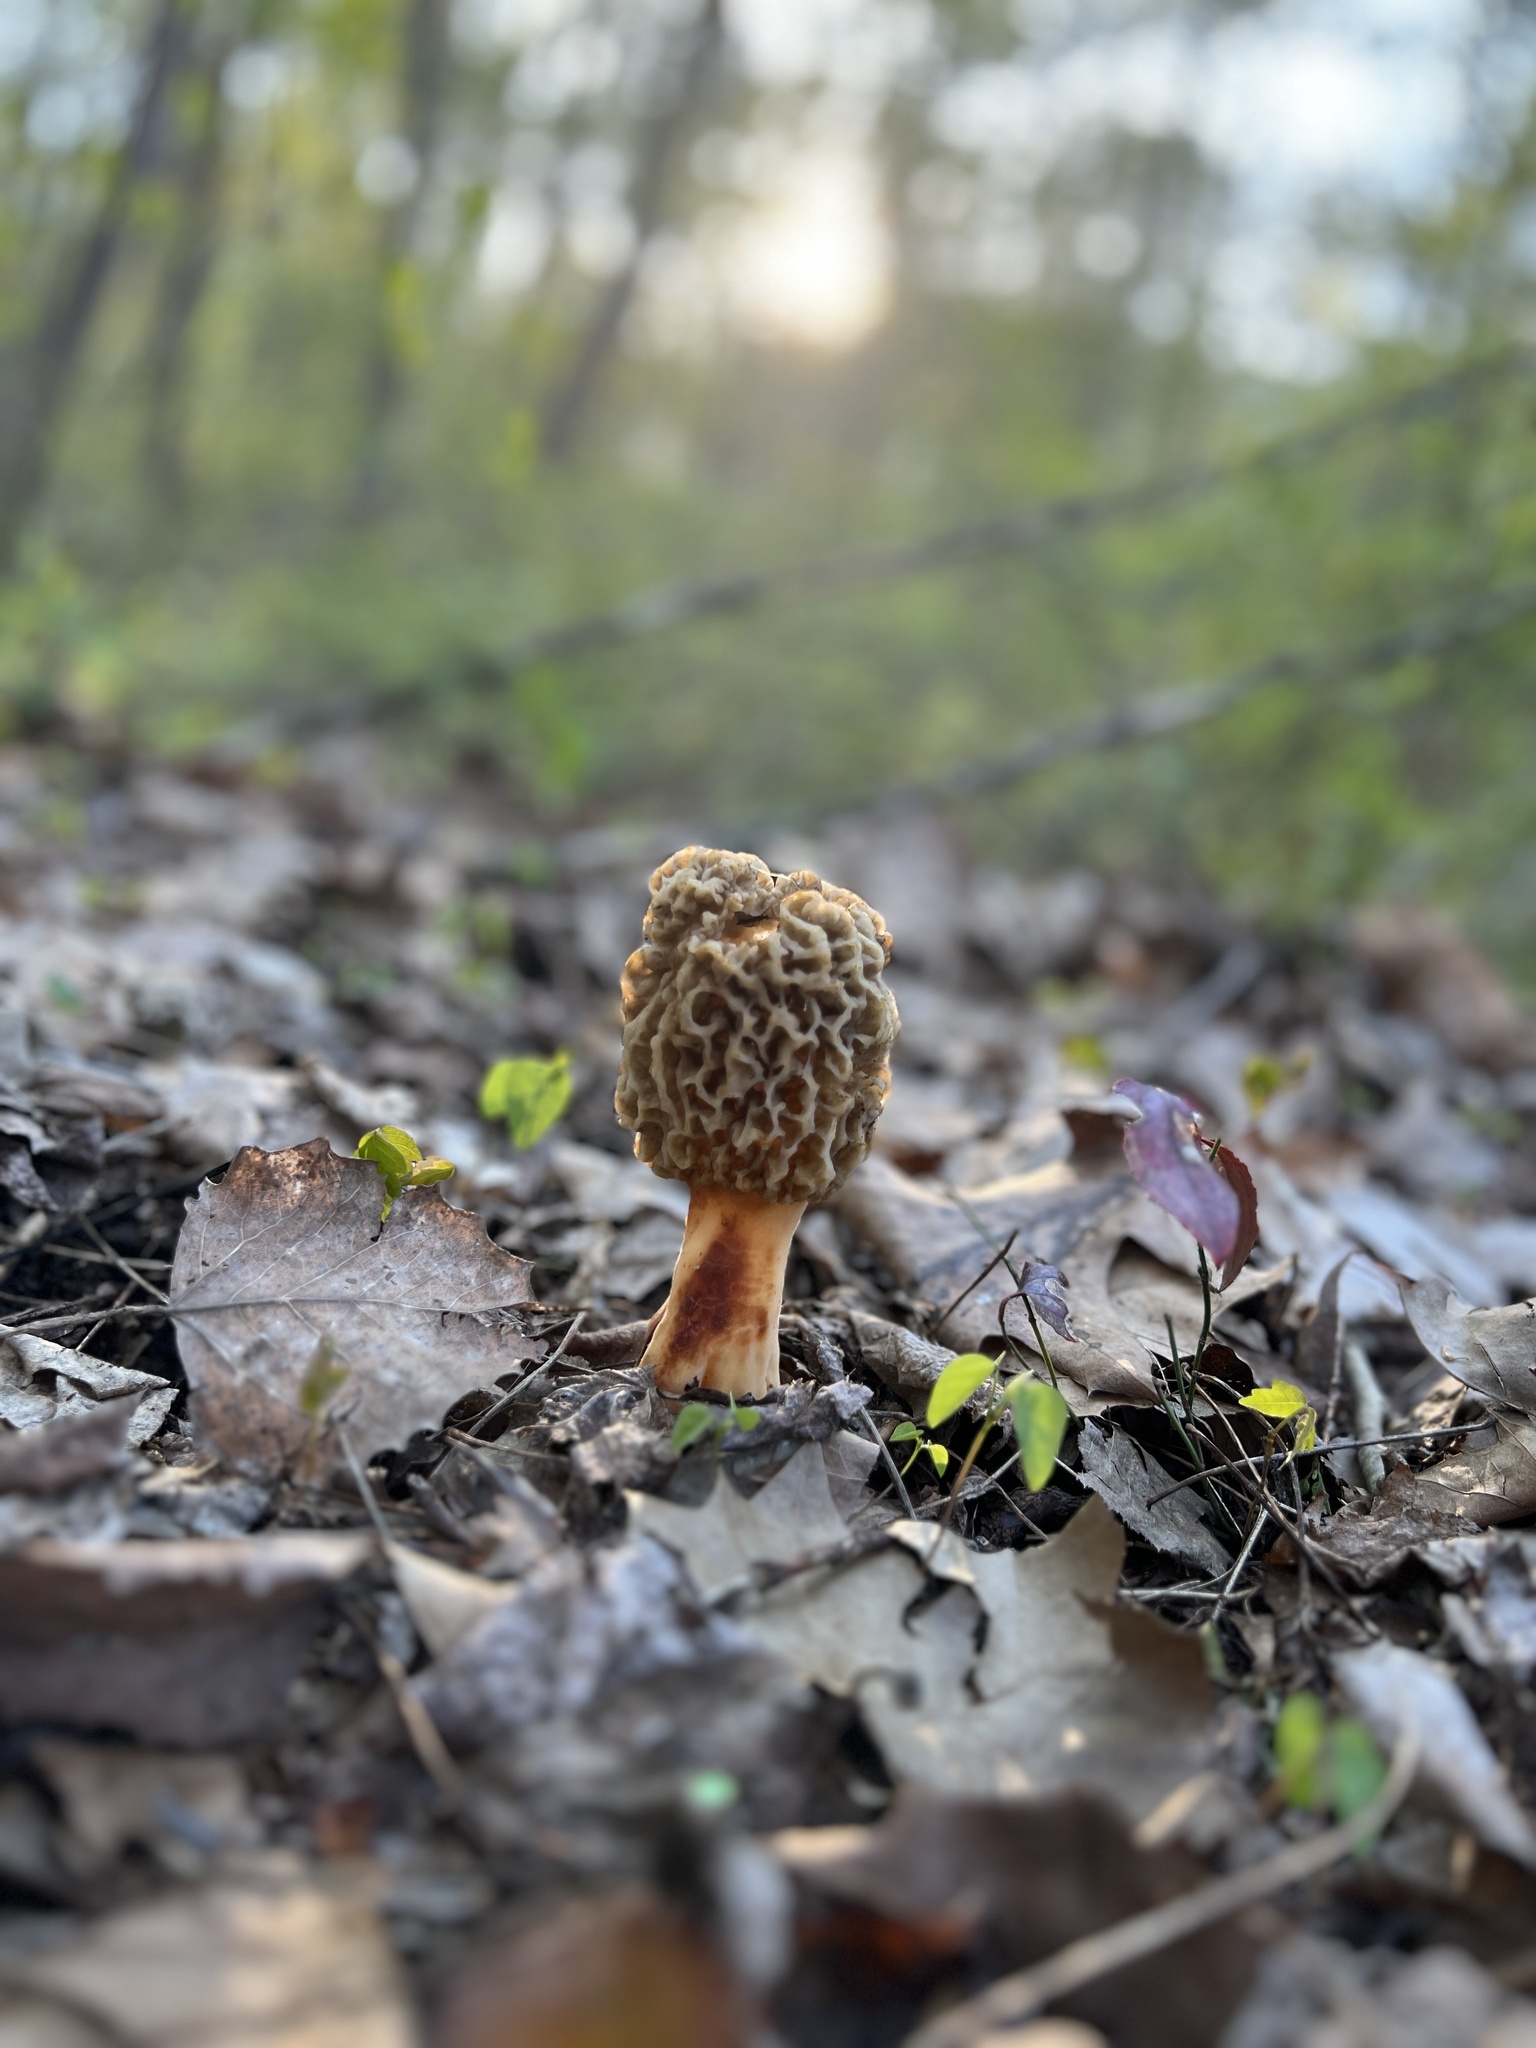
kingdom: Fungi
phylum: Ascomycota
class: Pezizomycetes
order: Pezizales
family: Morchellaceae
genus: Morchella
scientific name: Morchella americana
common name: White morel
